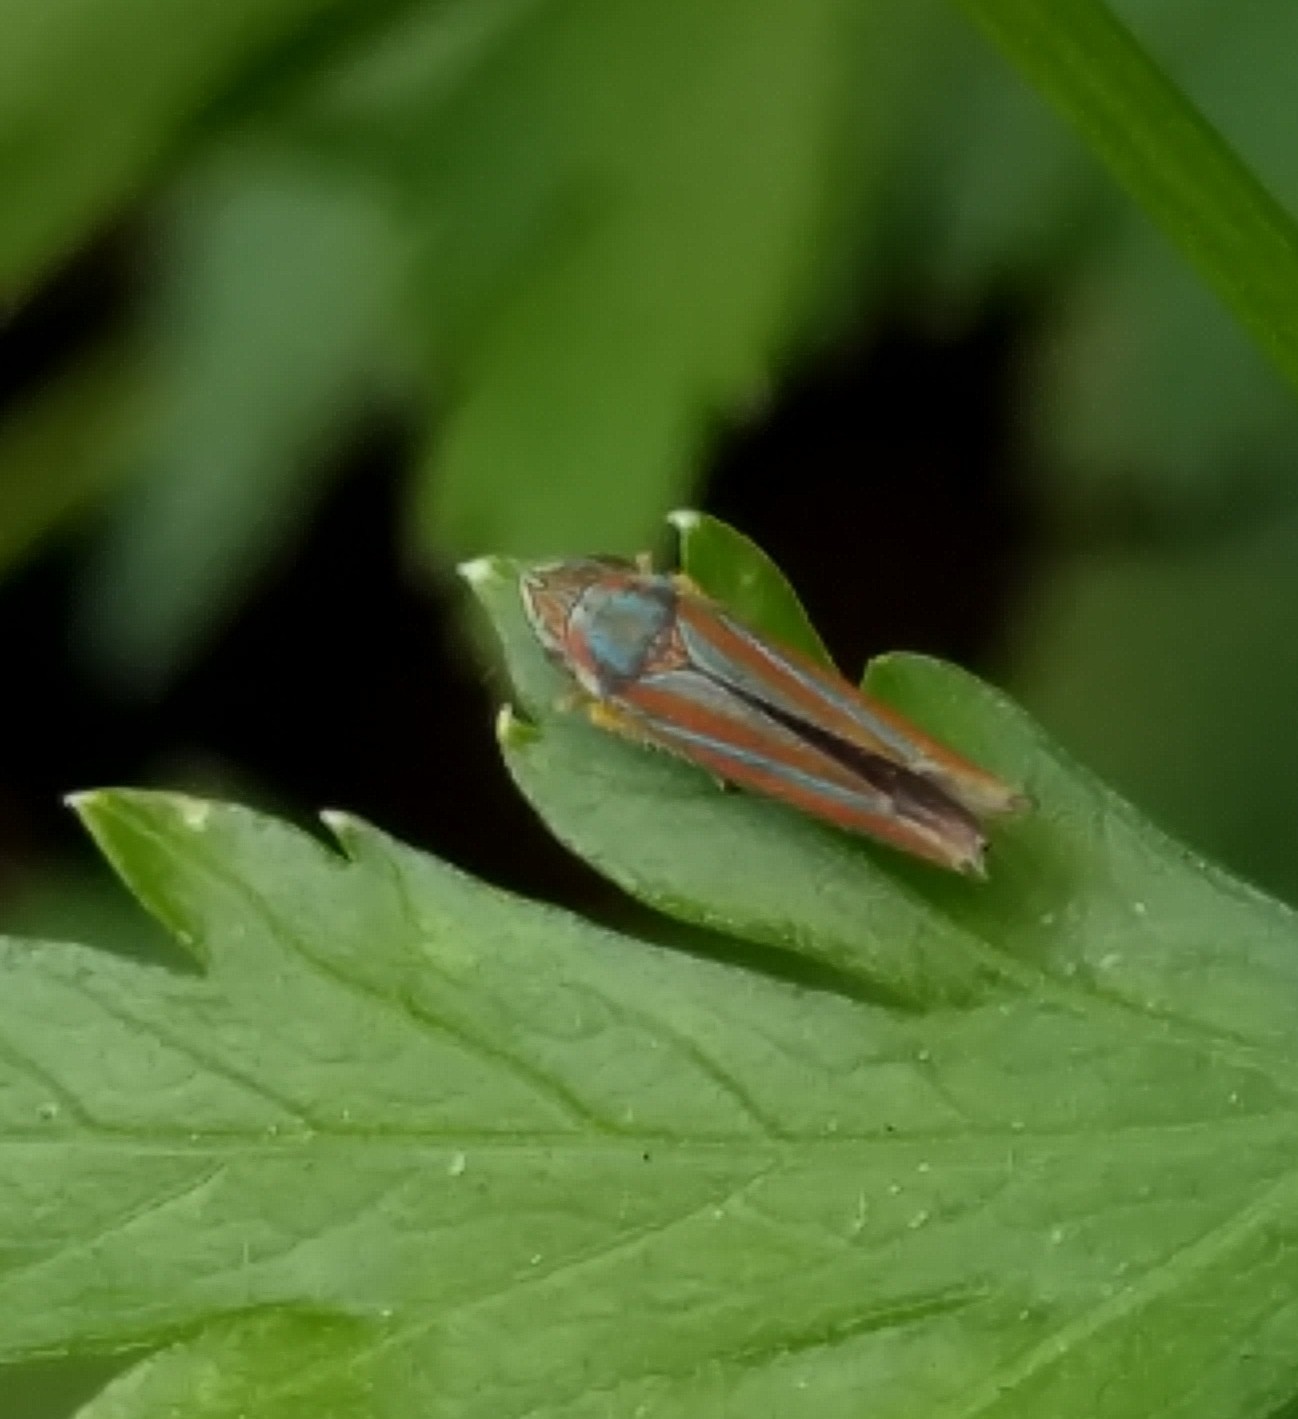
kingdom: Animalia
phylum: Arthropoda
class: Insecta
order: Hemiptera
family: Cicadellidae
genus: Graphocephala
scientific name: Graphocephala versuta
